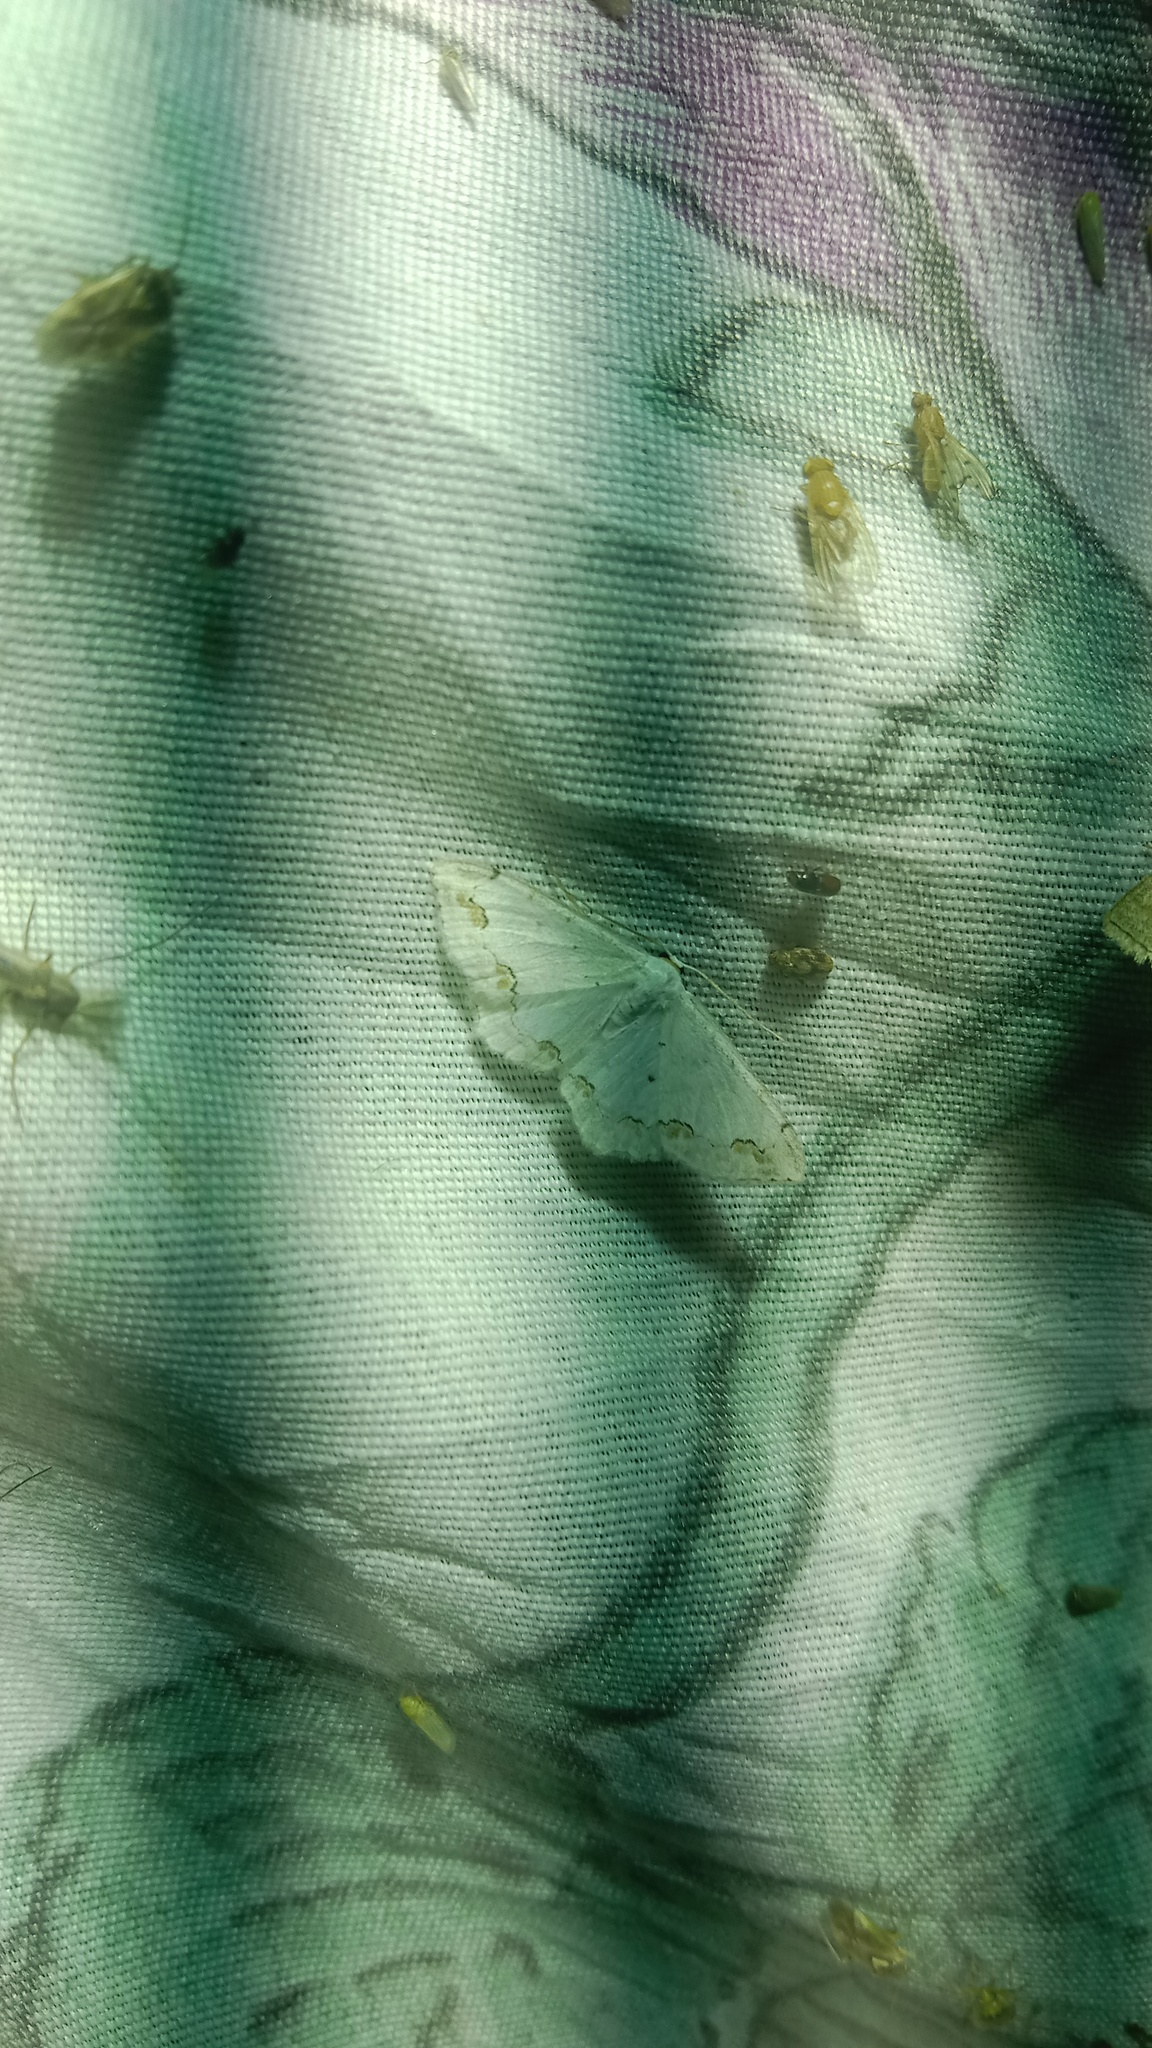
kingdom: Animalia
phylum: Arthropoda
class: Insecta
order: Lepidoptera
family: Geometridae
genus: Scopula
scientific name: Scopula ornata
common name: Lace border
